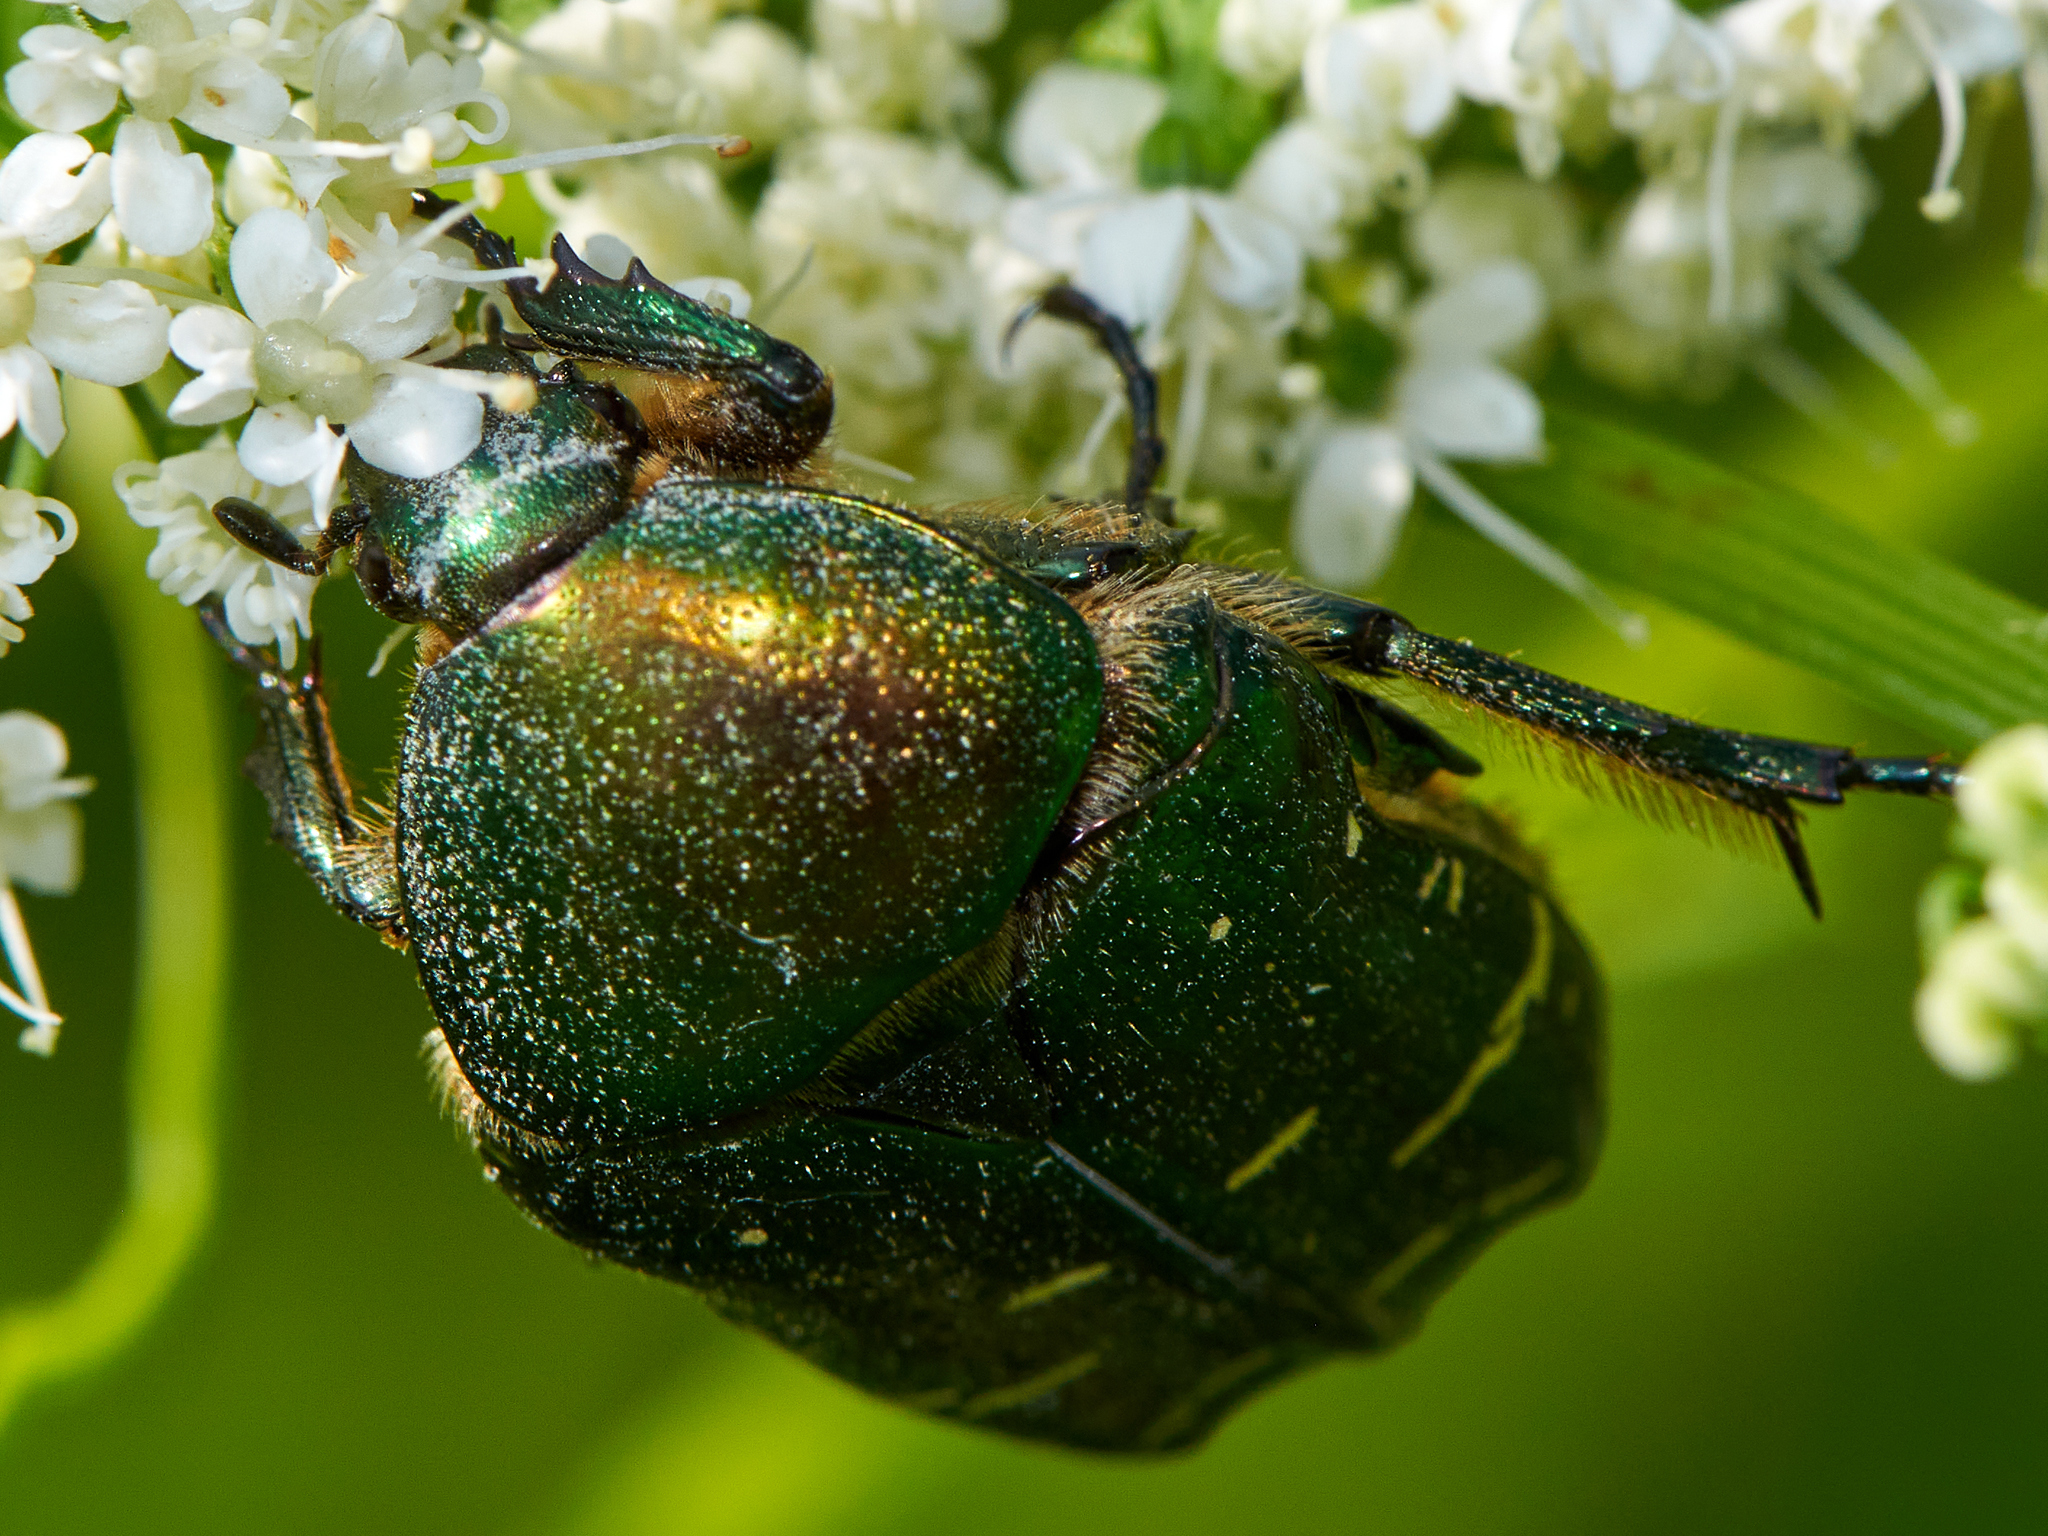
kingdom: Animalia
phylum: Arthropoda
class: Insecta
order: Coleoptera
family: Scarabaeidae
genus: Cetonia
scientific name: Cetonia aurata
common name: Rose chafer
